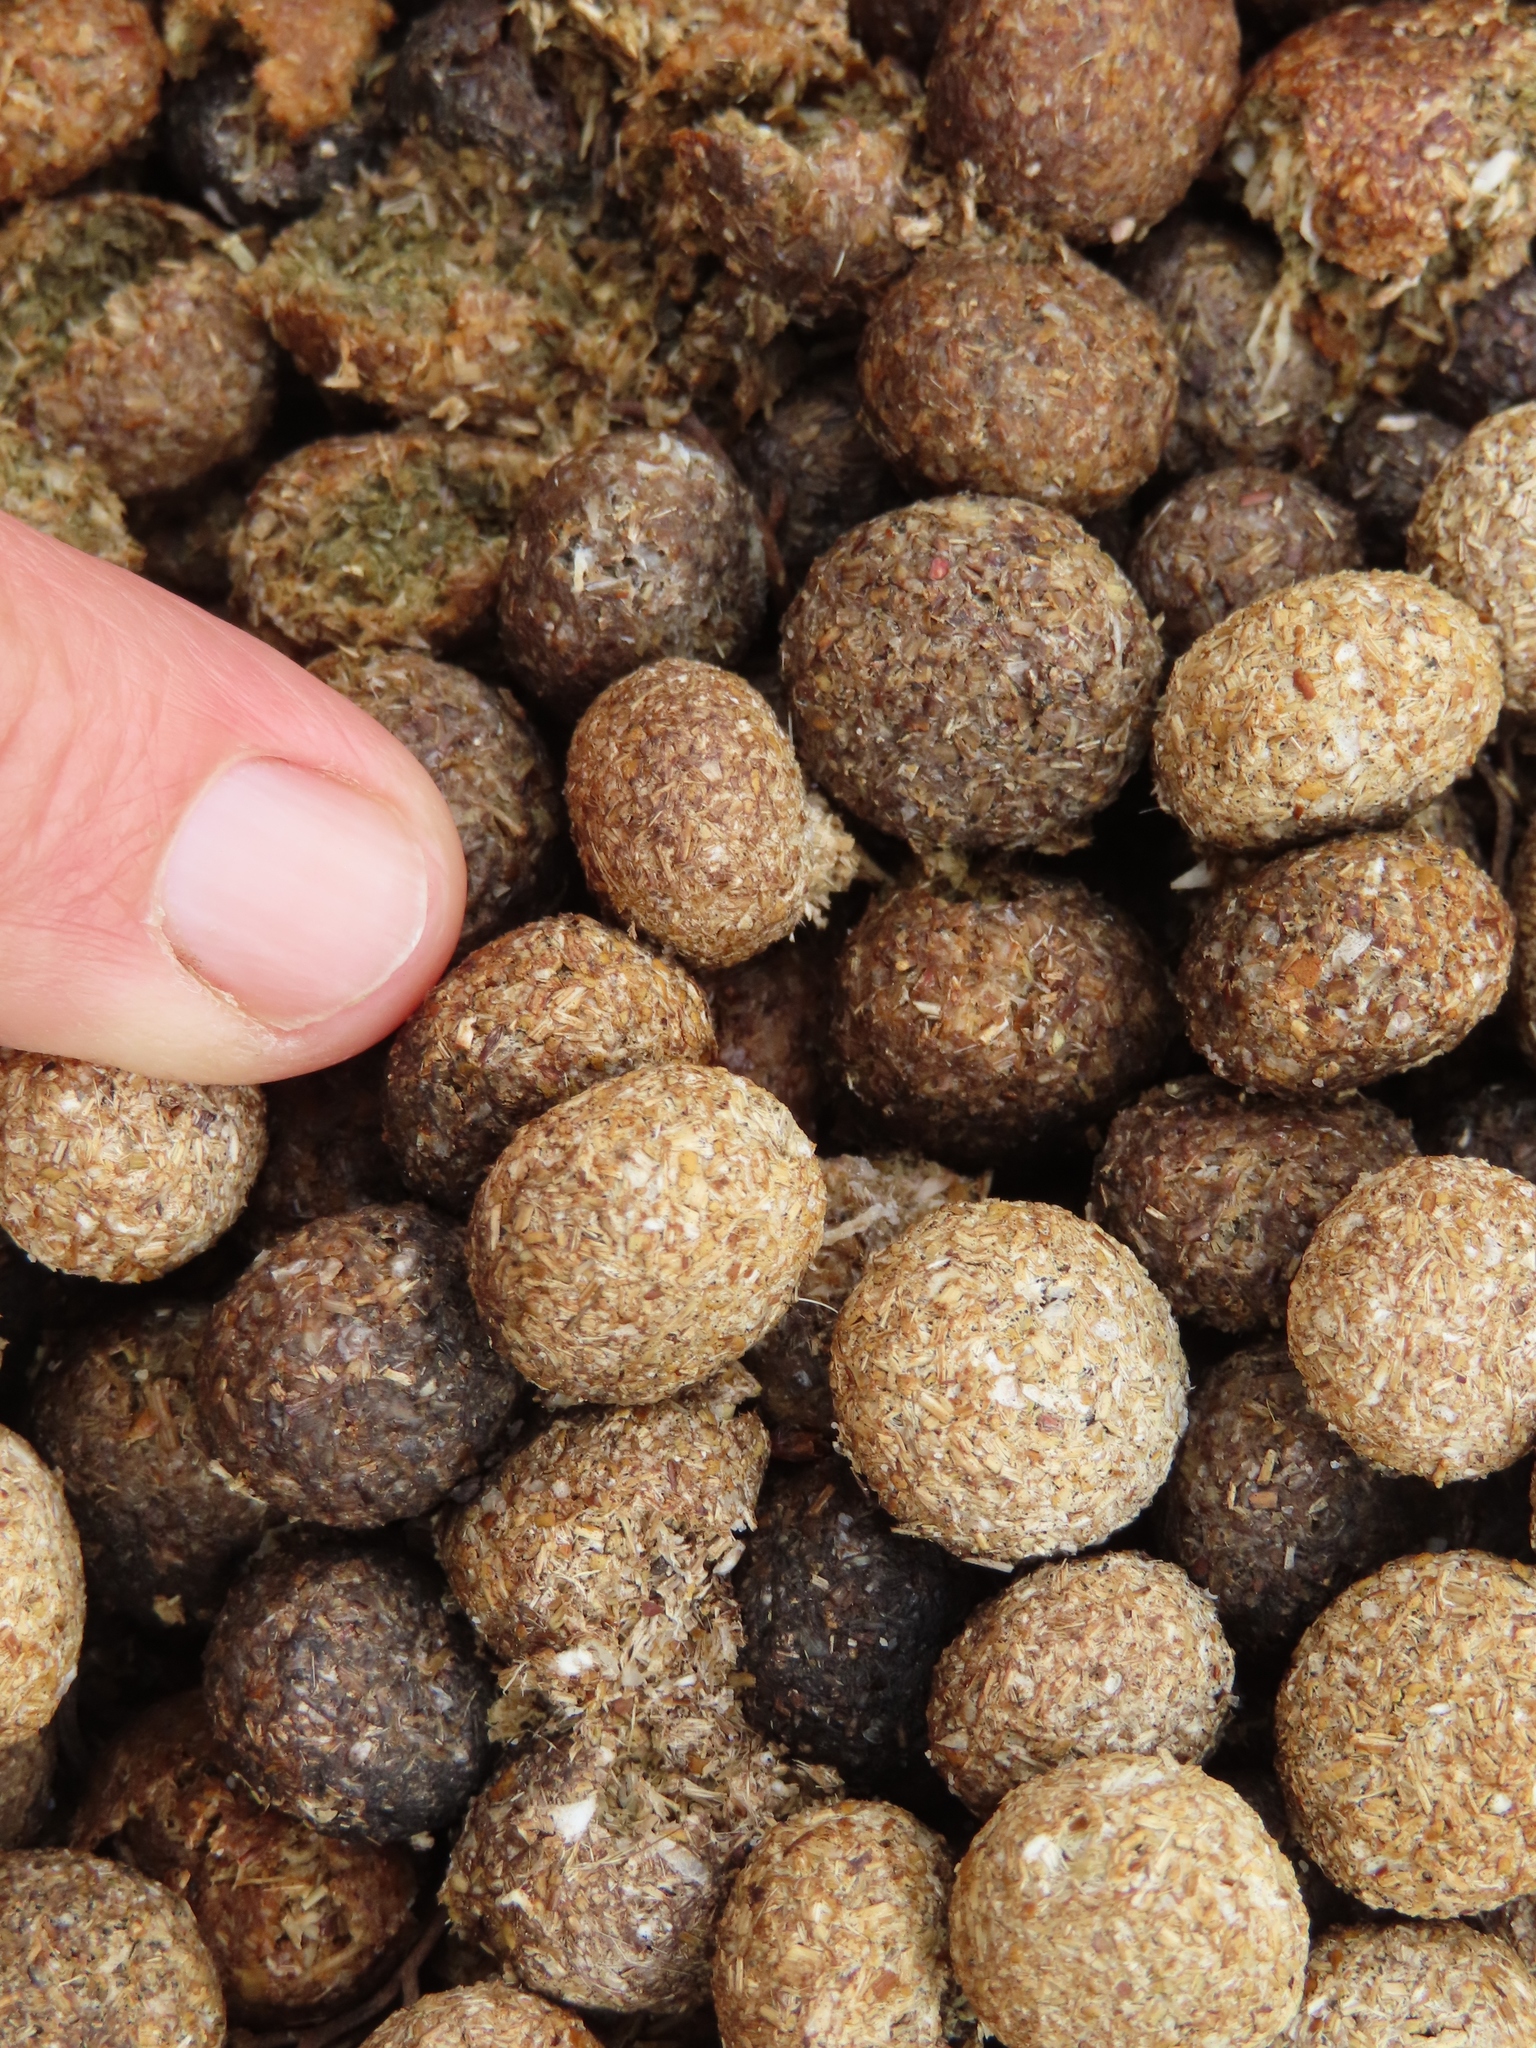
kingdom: Animalia
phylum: Chordata
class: Mammalia
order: Lagomorpha
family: Leporidae
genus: Pronolagus
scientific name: Pronolagus saundersiae
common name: Hewitt's red rock hare
